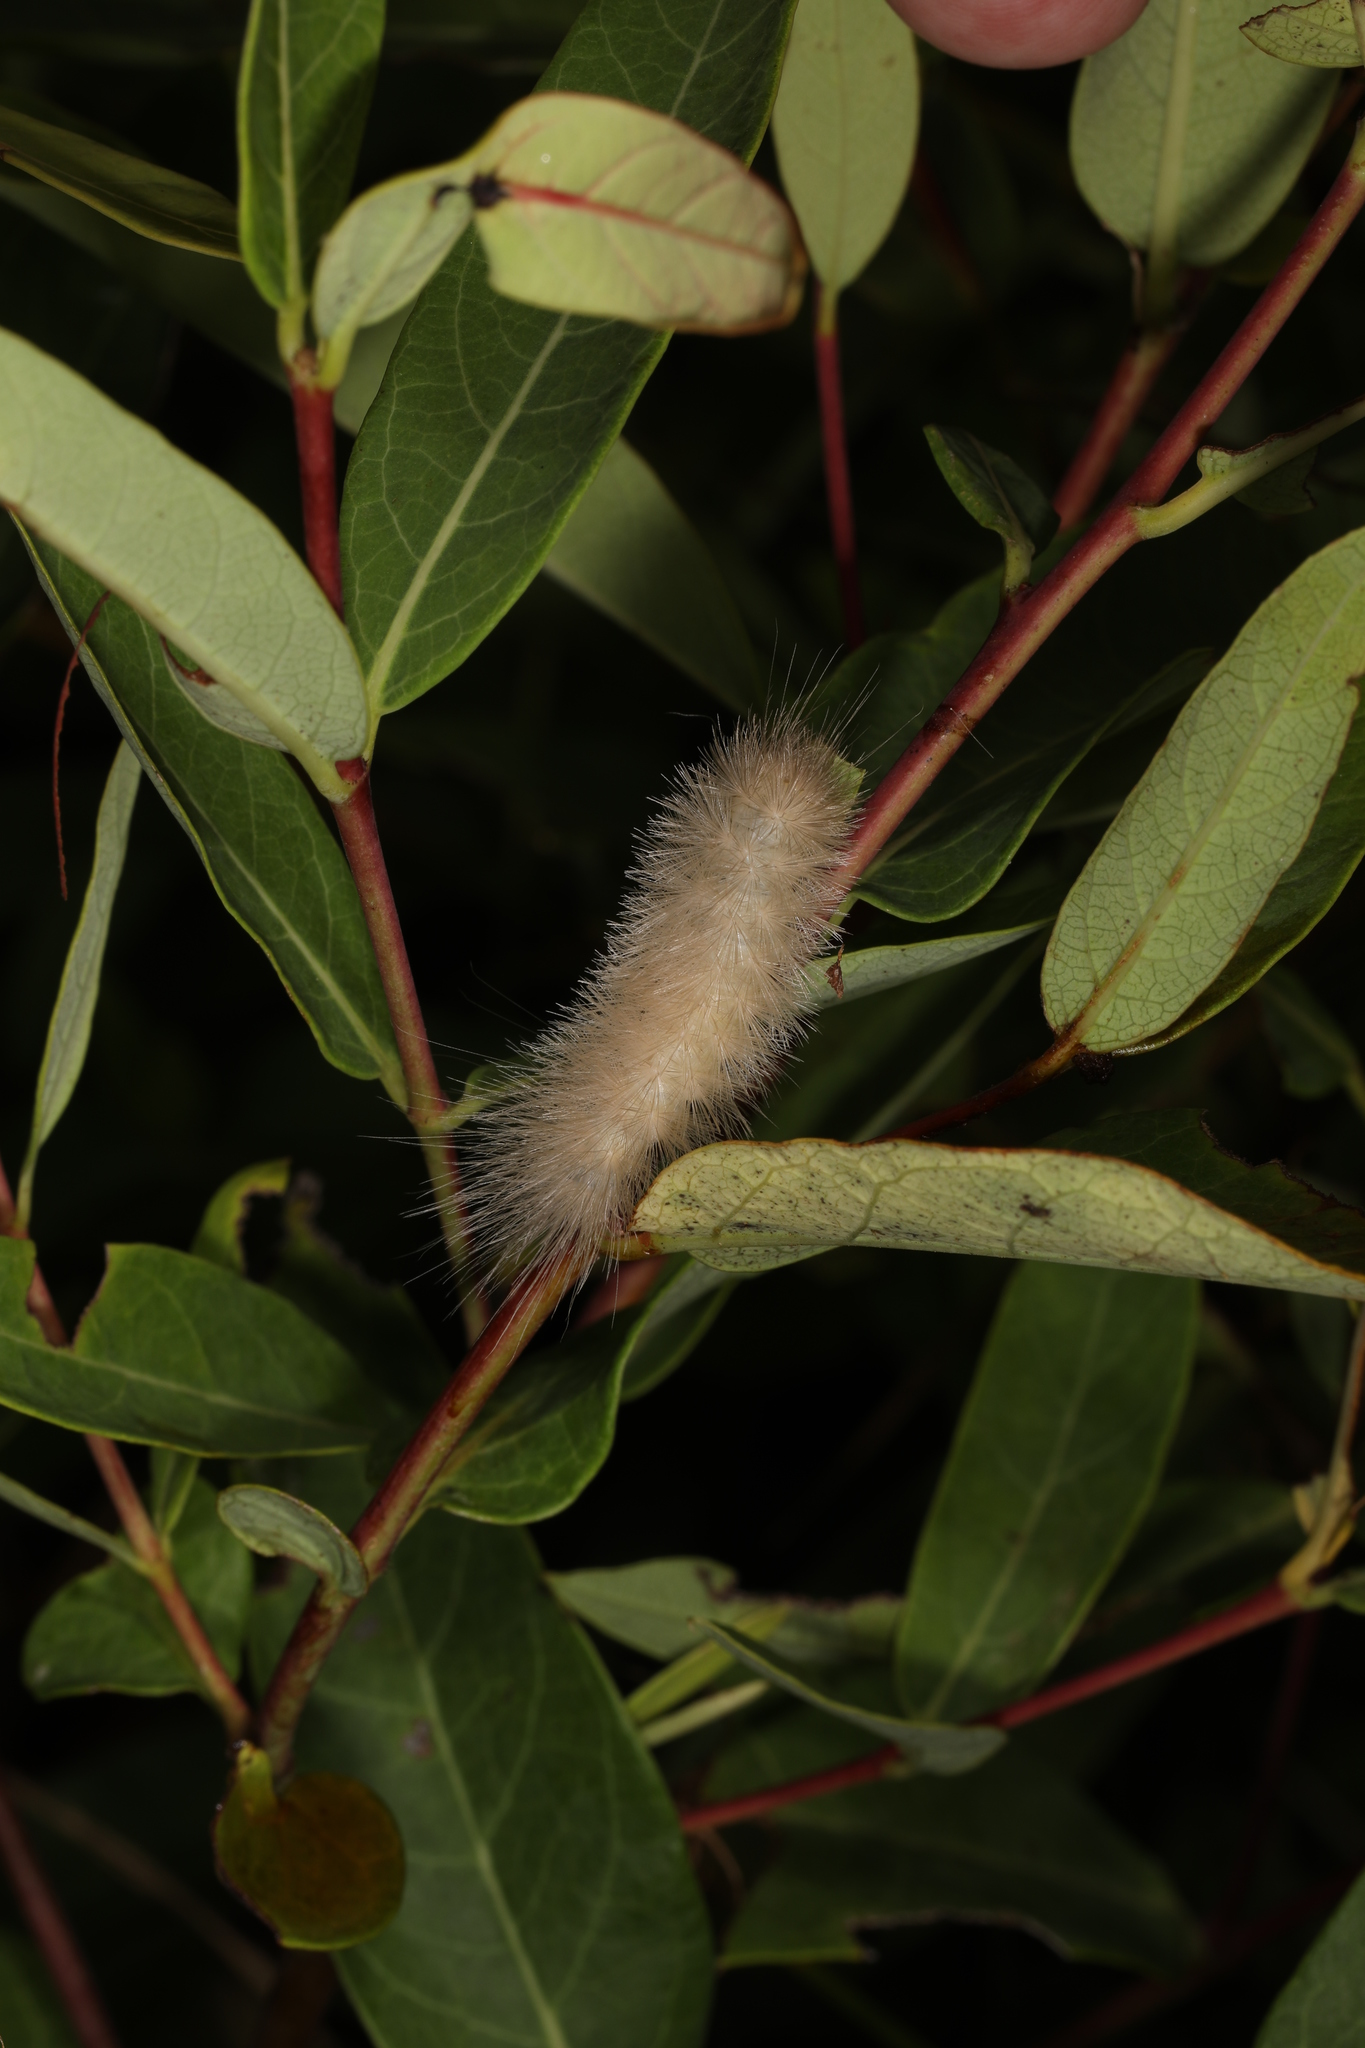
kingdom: Animalia
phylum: Arthropoda
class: Insecta
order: Lepidoptera
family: Erebidae
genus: Cycnia
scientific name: Cycnia tenera
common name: Delicate cycnia moth
